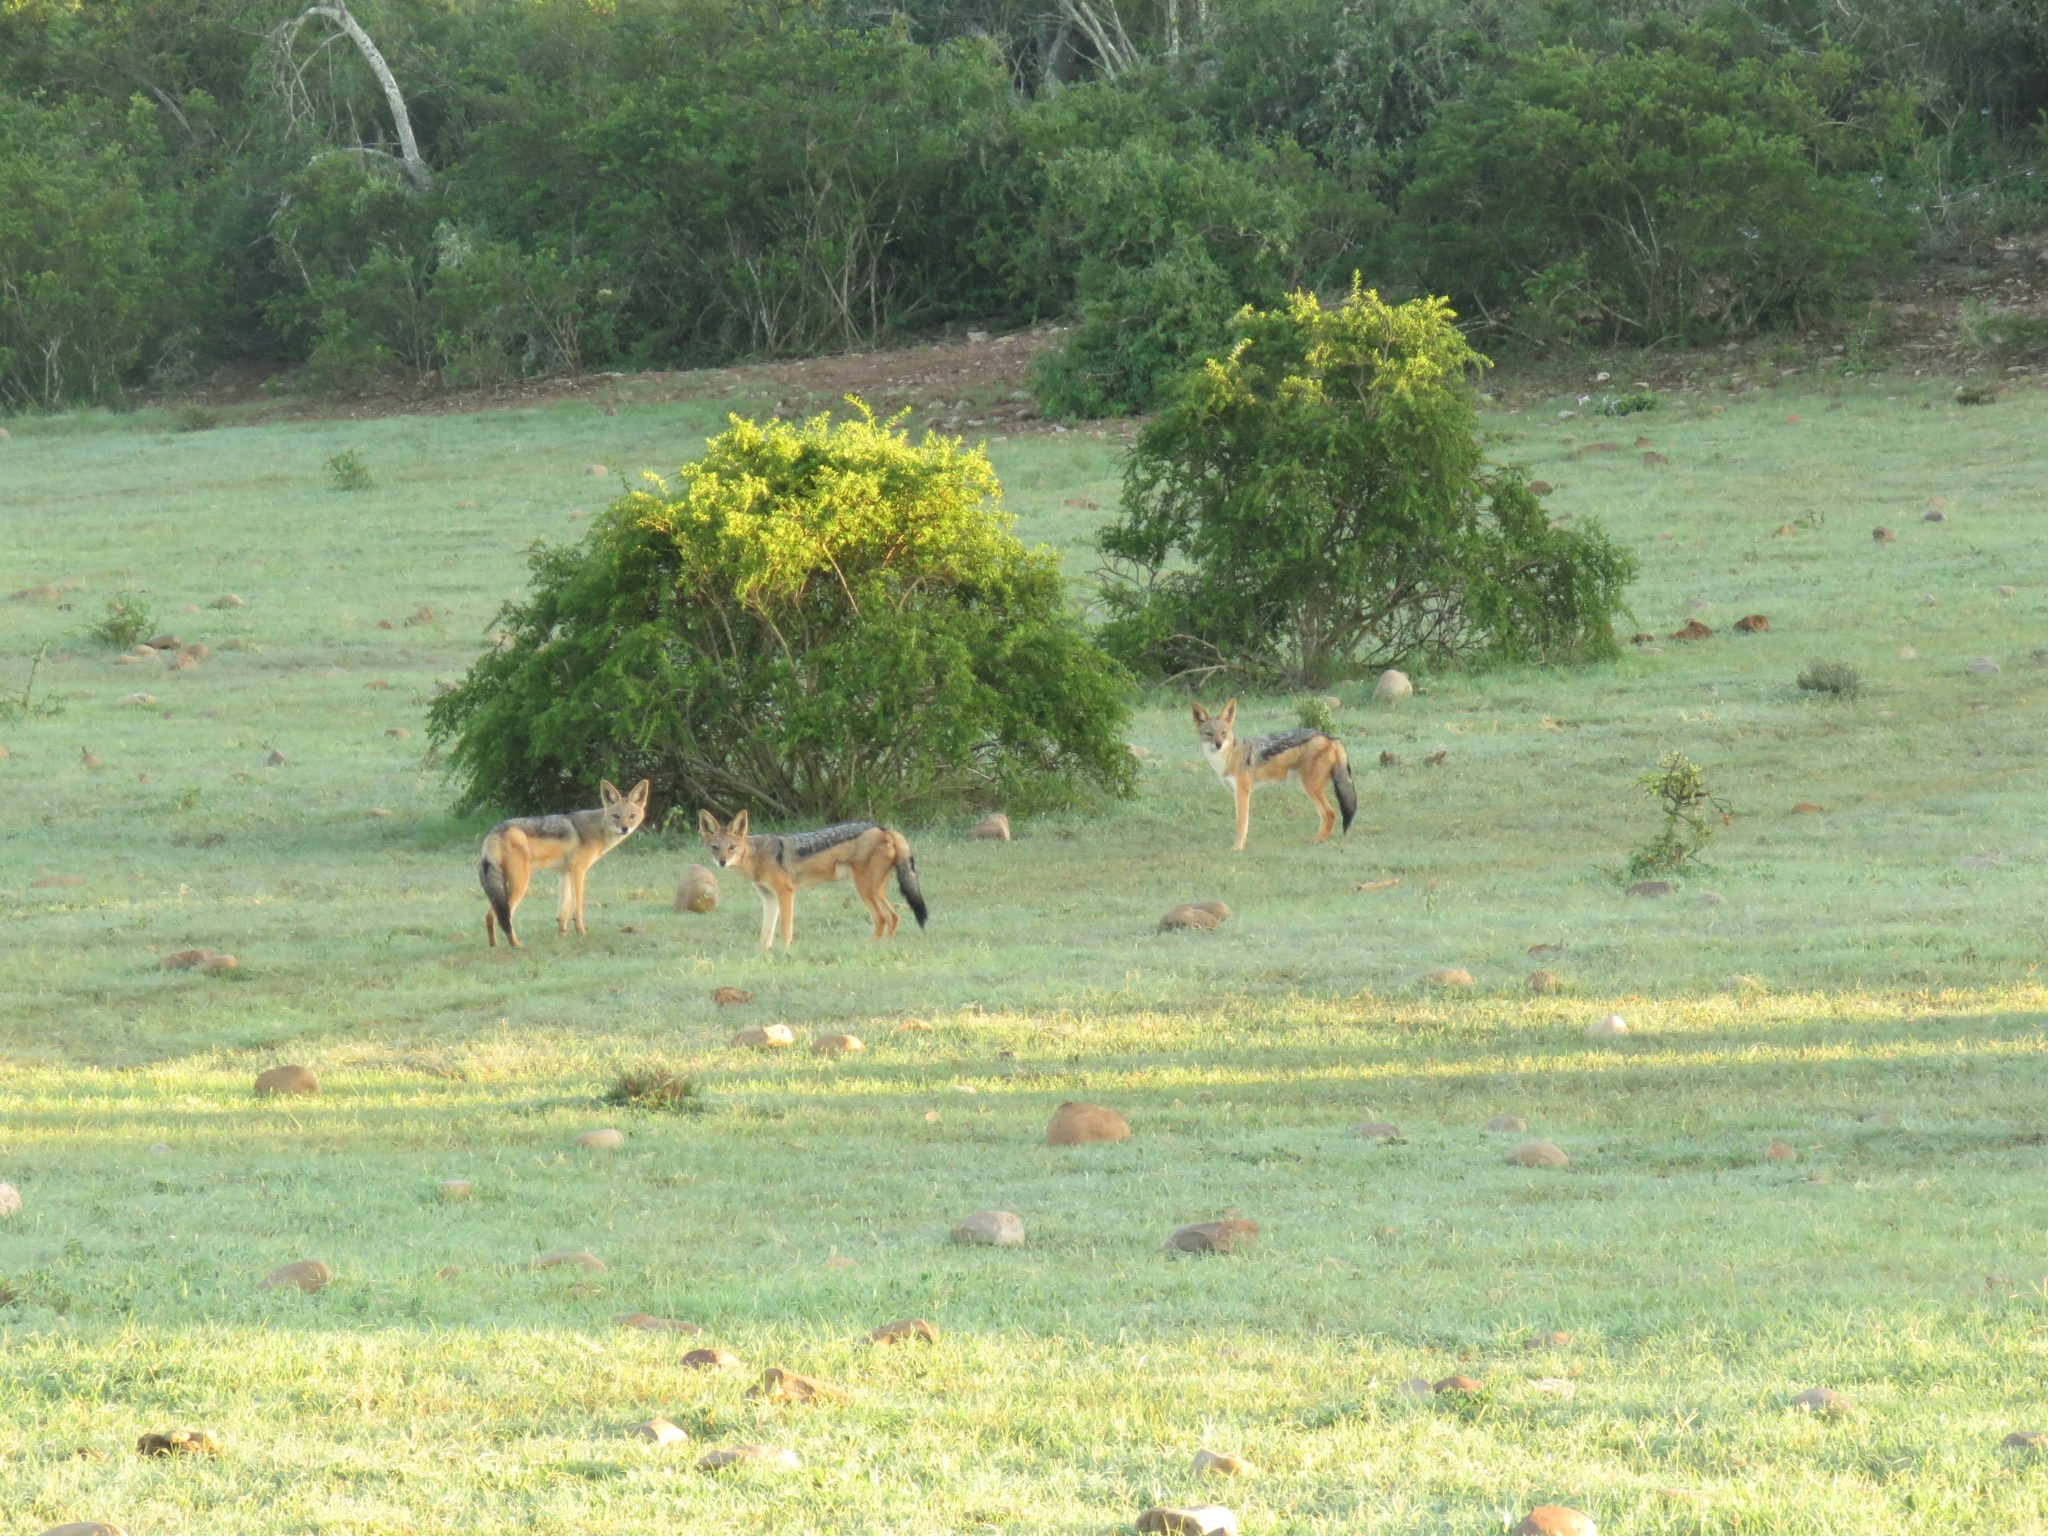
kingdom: Animalia
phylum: Chordata
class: Mammalia
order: Carnivora
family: Canidae
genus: Lupulella
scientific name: Lupulella
